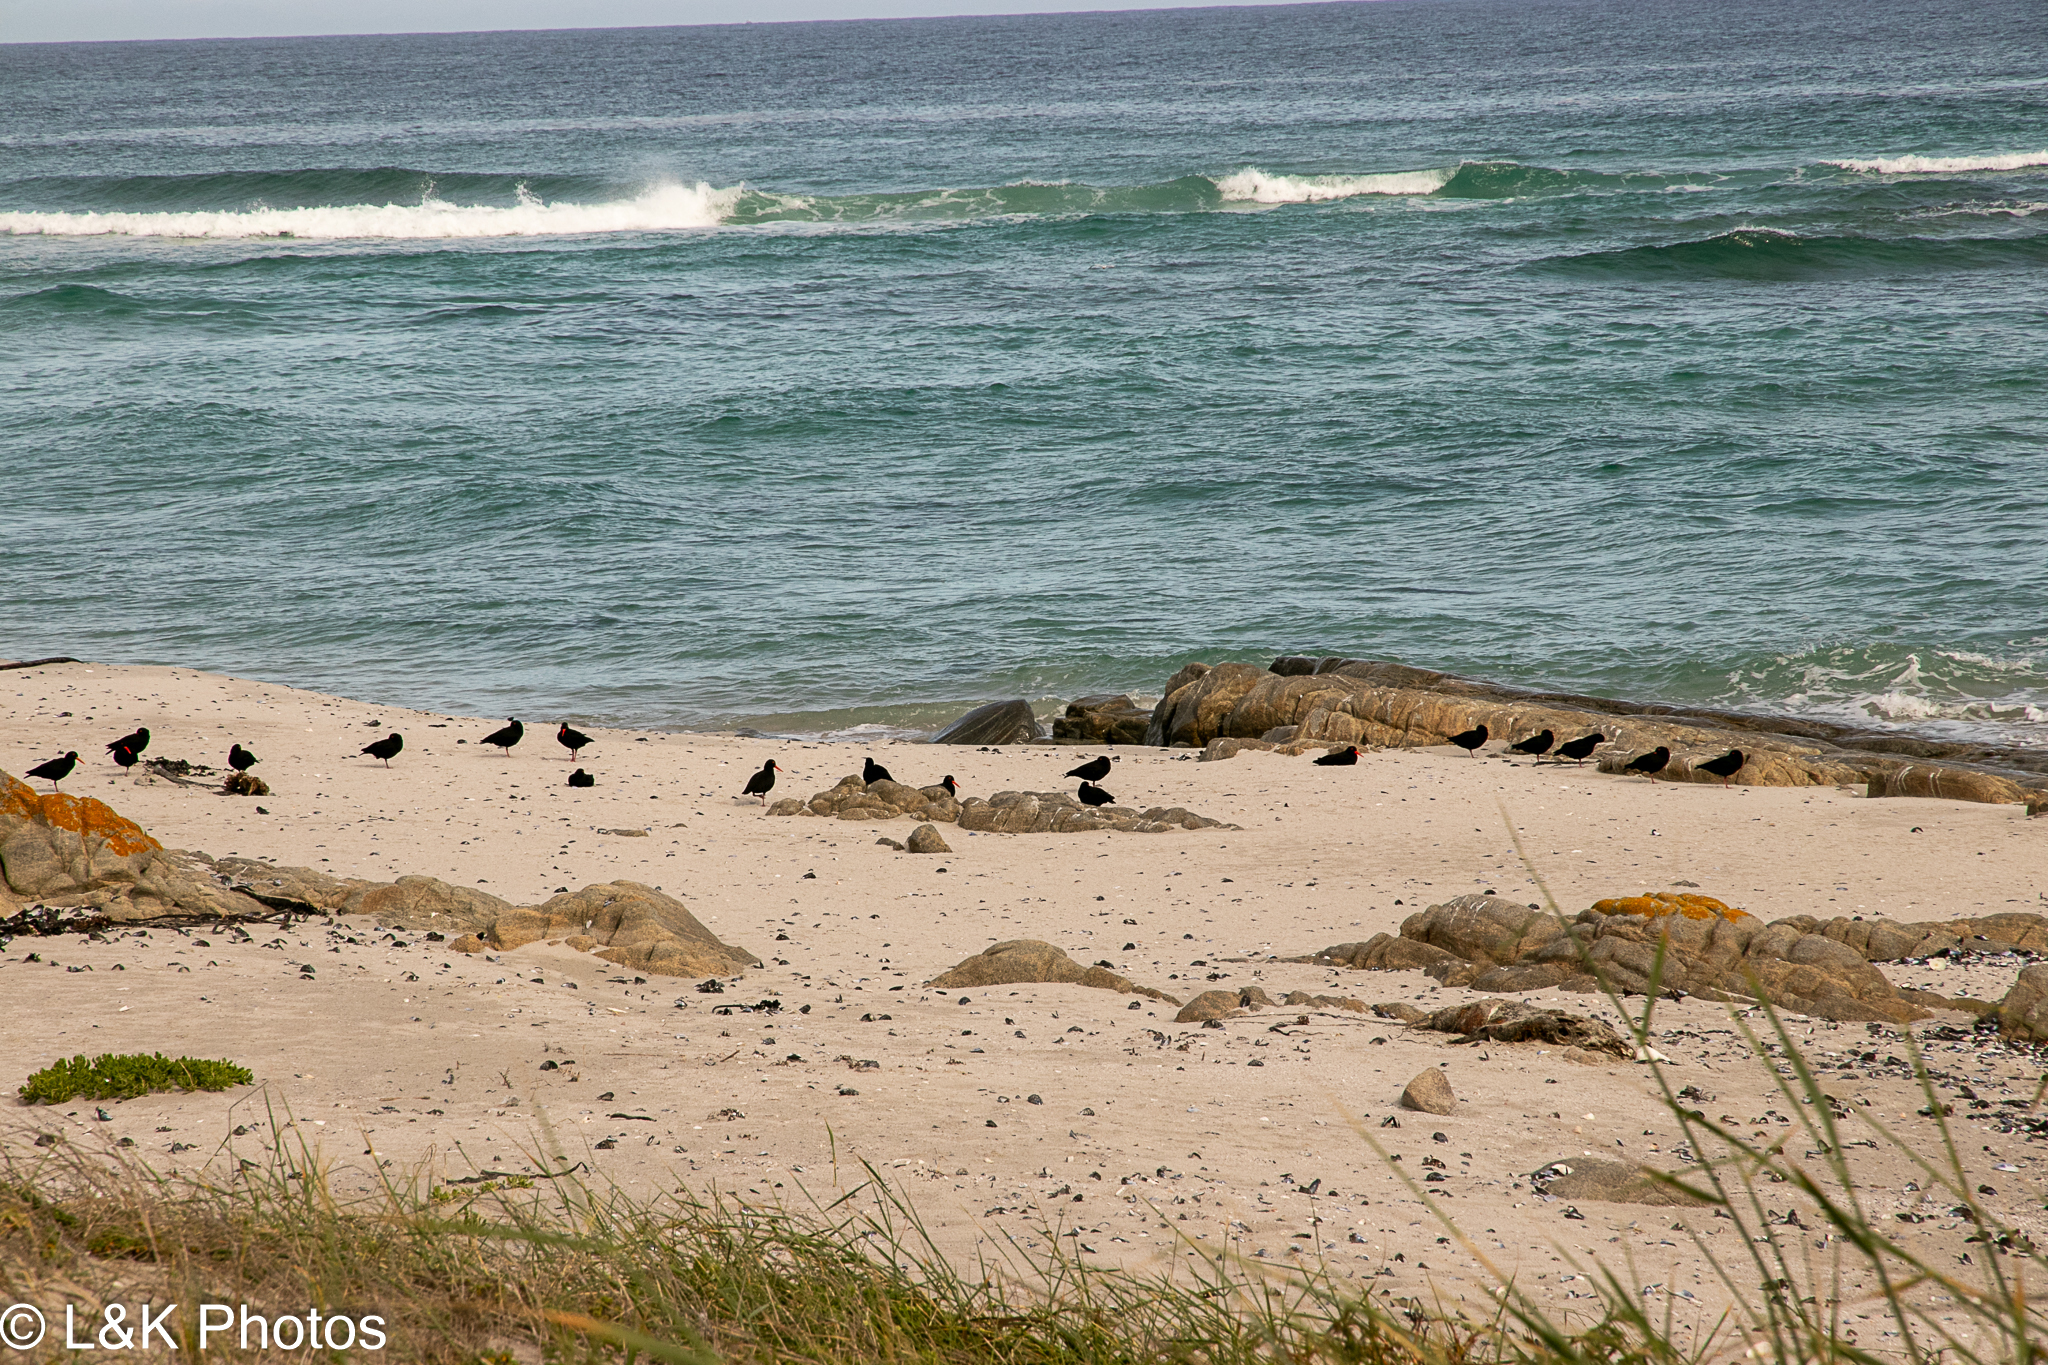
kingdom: Animalia
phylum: Chordata
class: Aves
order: Charadriiformes
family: Haematopodidae
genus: Haematopus
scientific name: Haematopus moquini
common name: African oystercatcher
